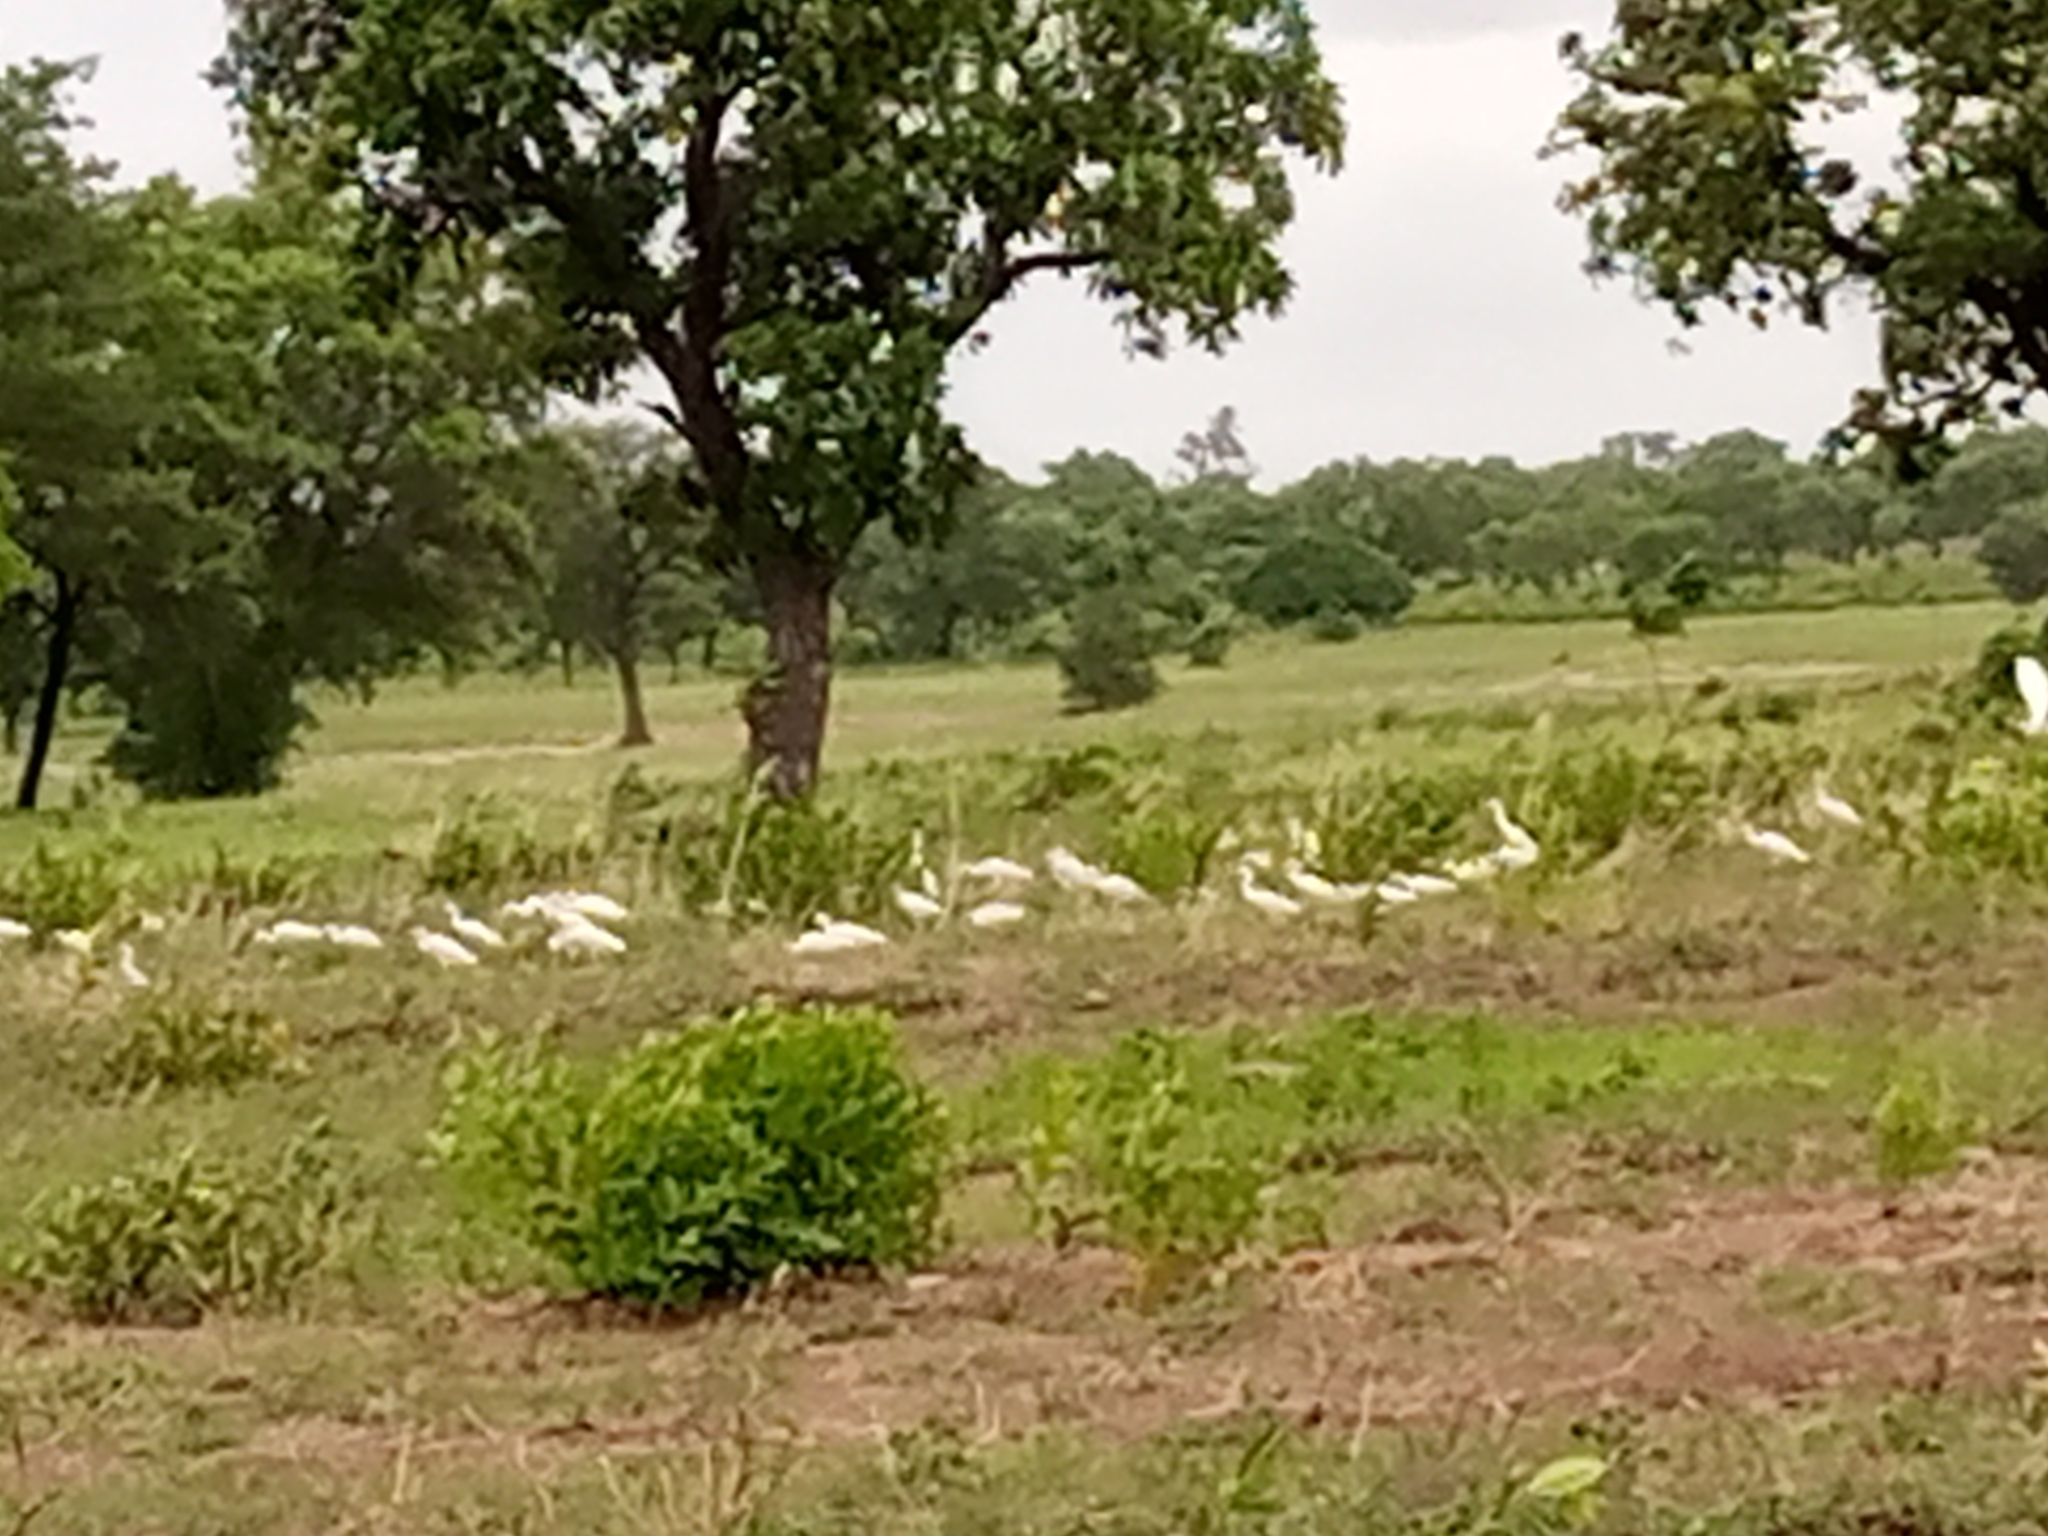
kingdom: Animalia
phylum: Chordata
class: Aves
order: Pelecaniformes
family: Ardeidae
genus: Bubulcus
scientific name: Bubulcus ibis
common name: Cattle egret
